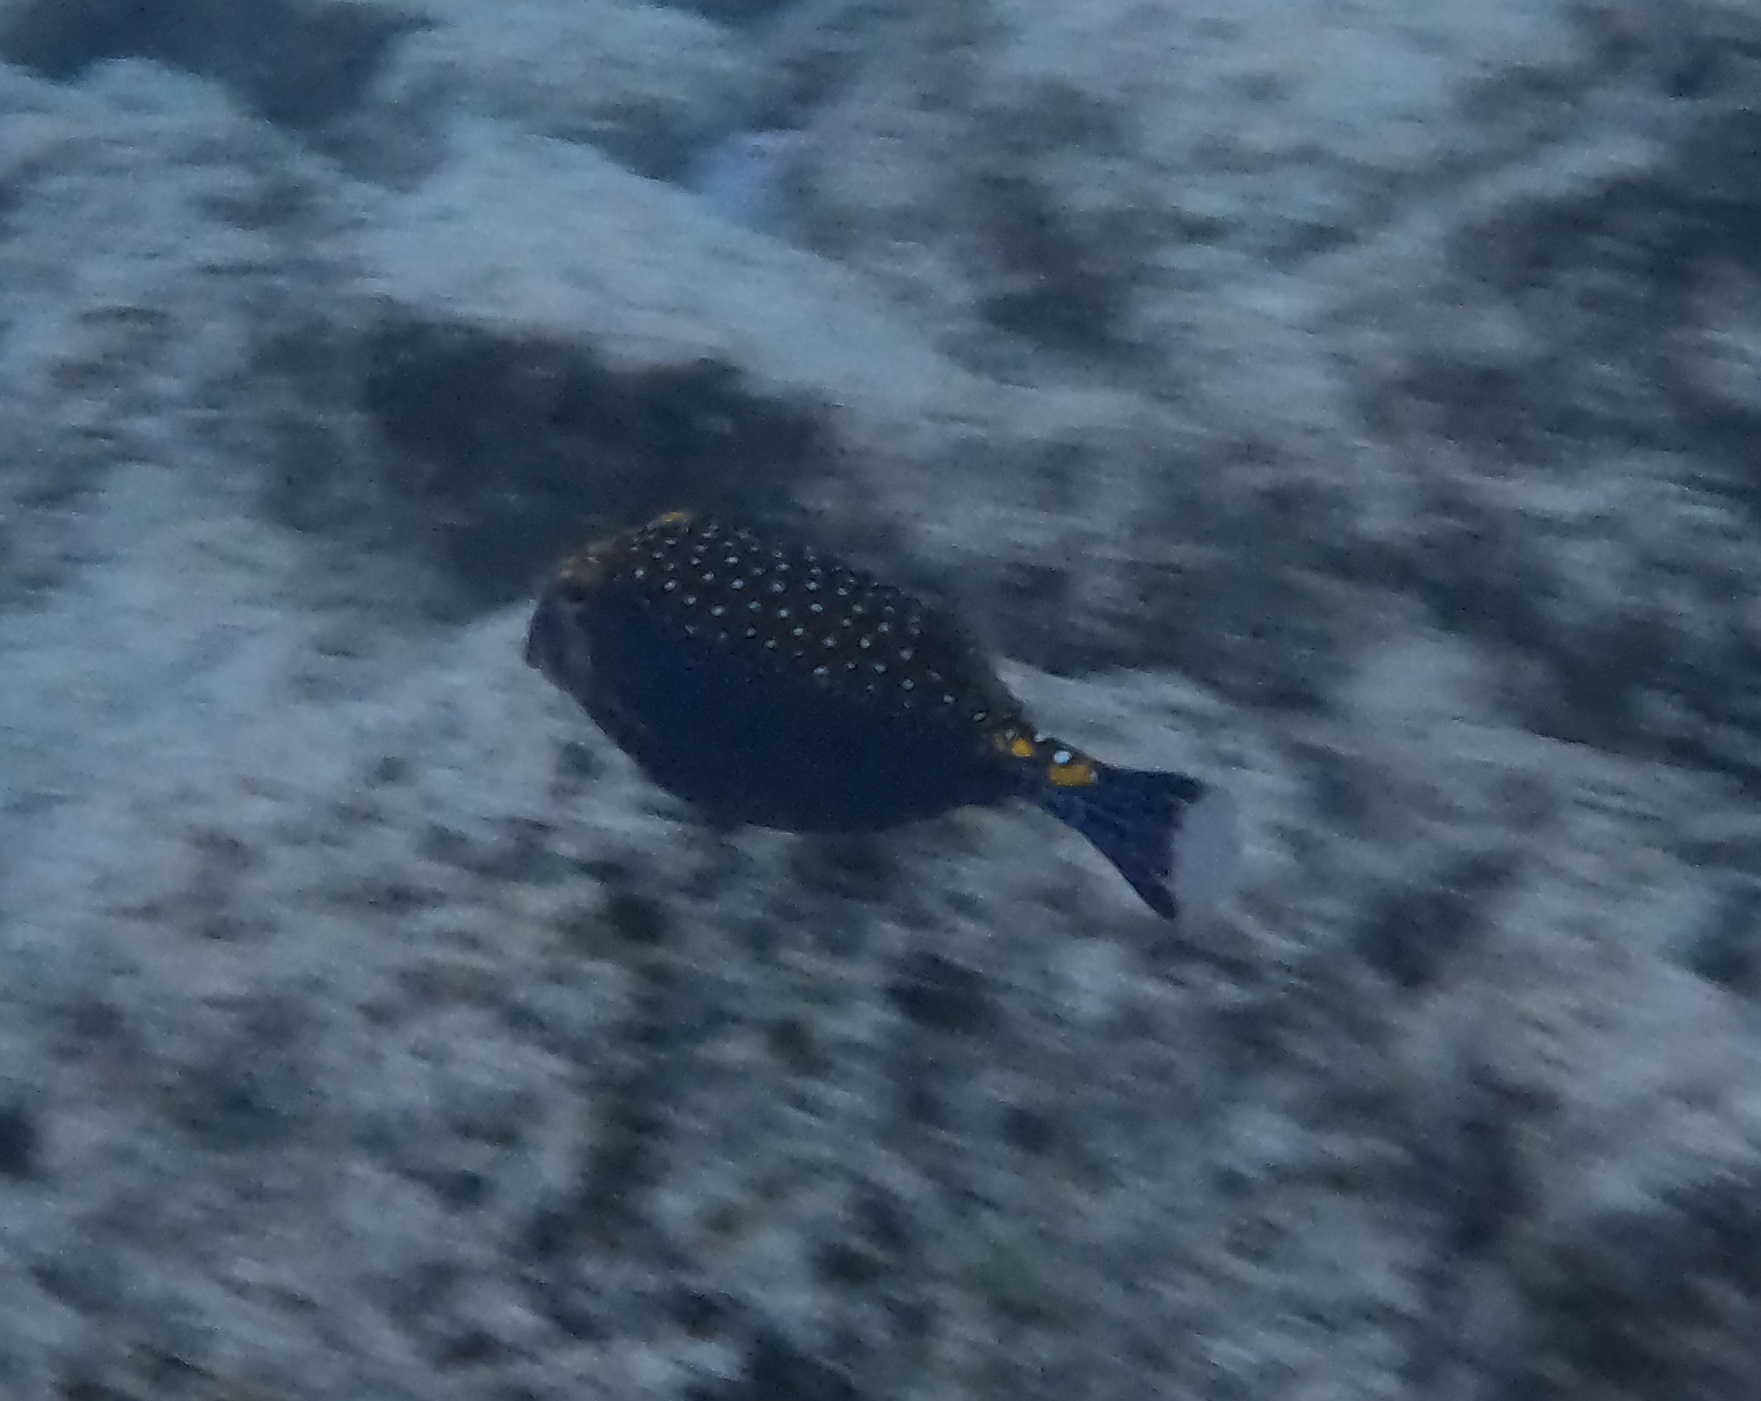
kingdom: Animalia
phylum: Chordata
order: Tetraodontiformes
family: Ostraciidae
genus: Ostracion
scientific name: Ostracion meleagris
